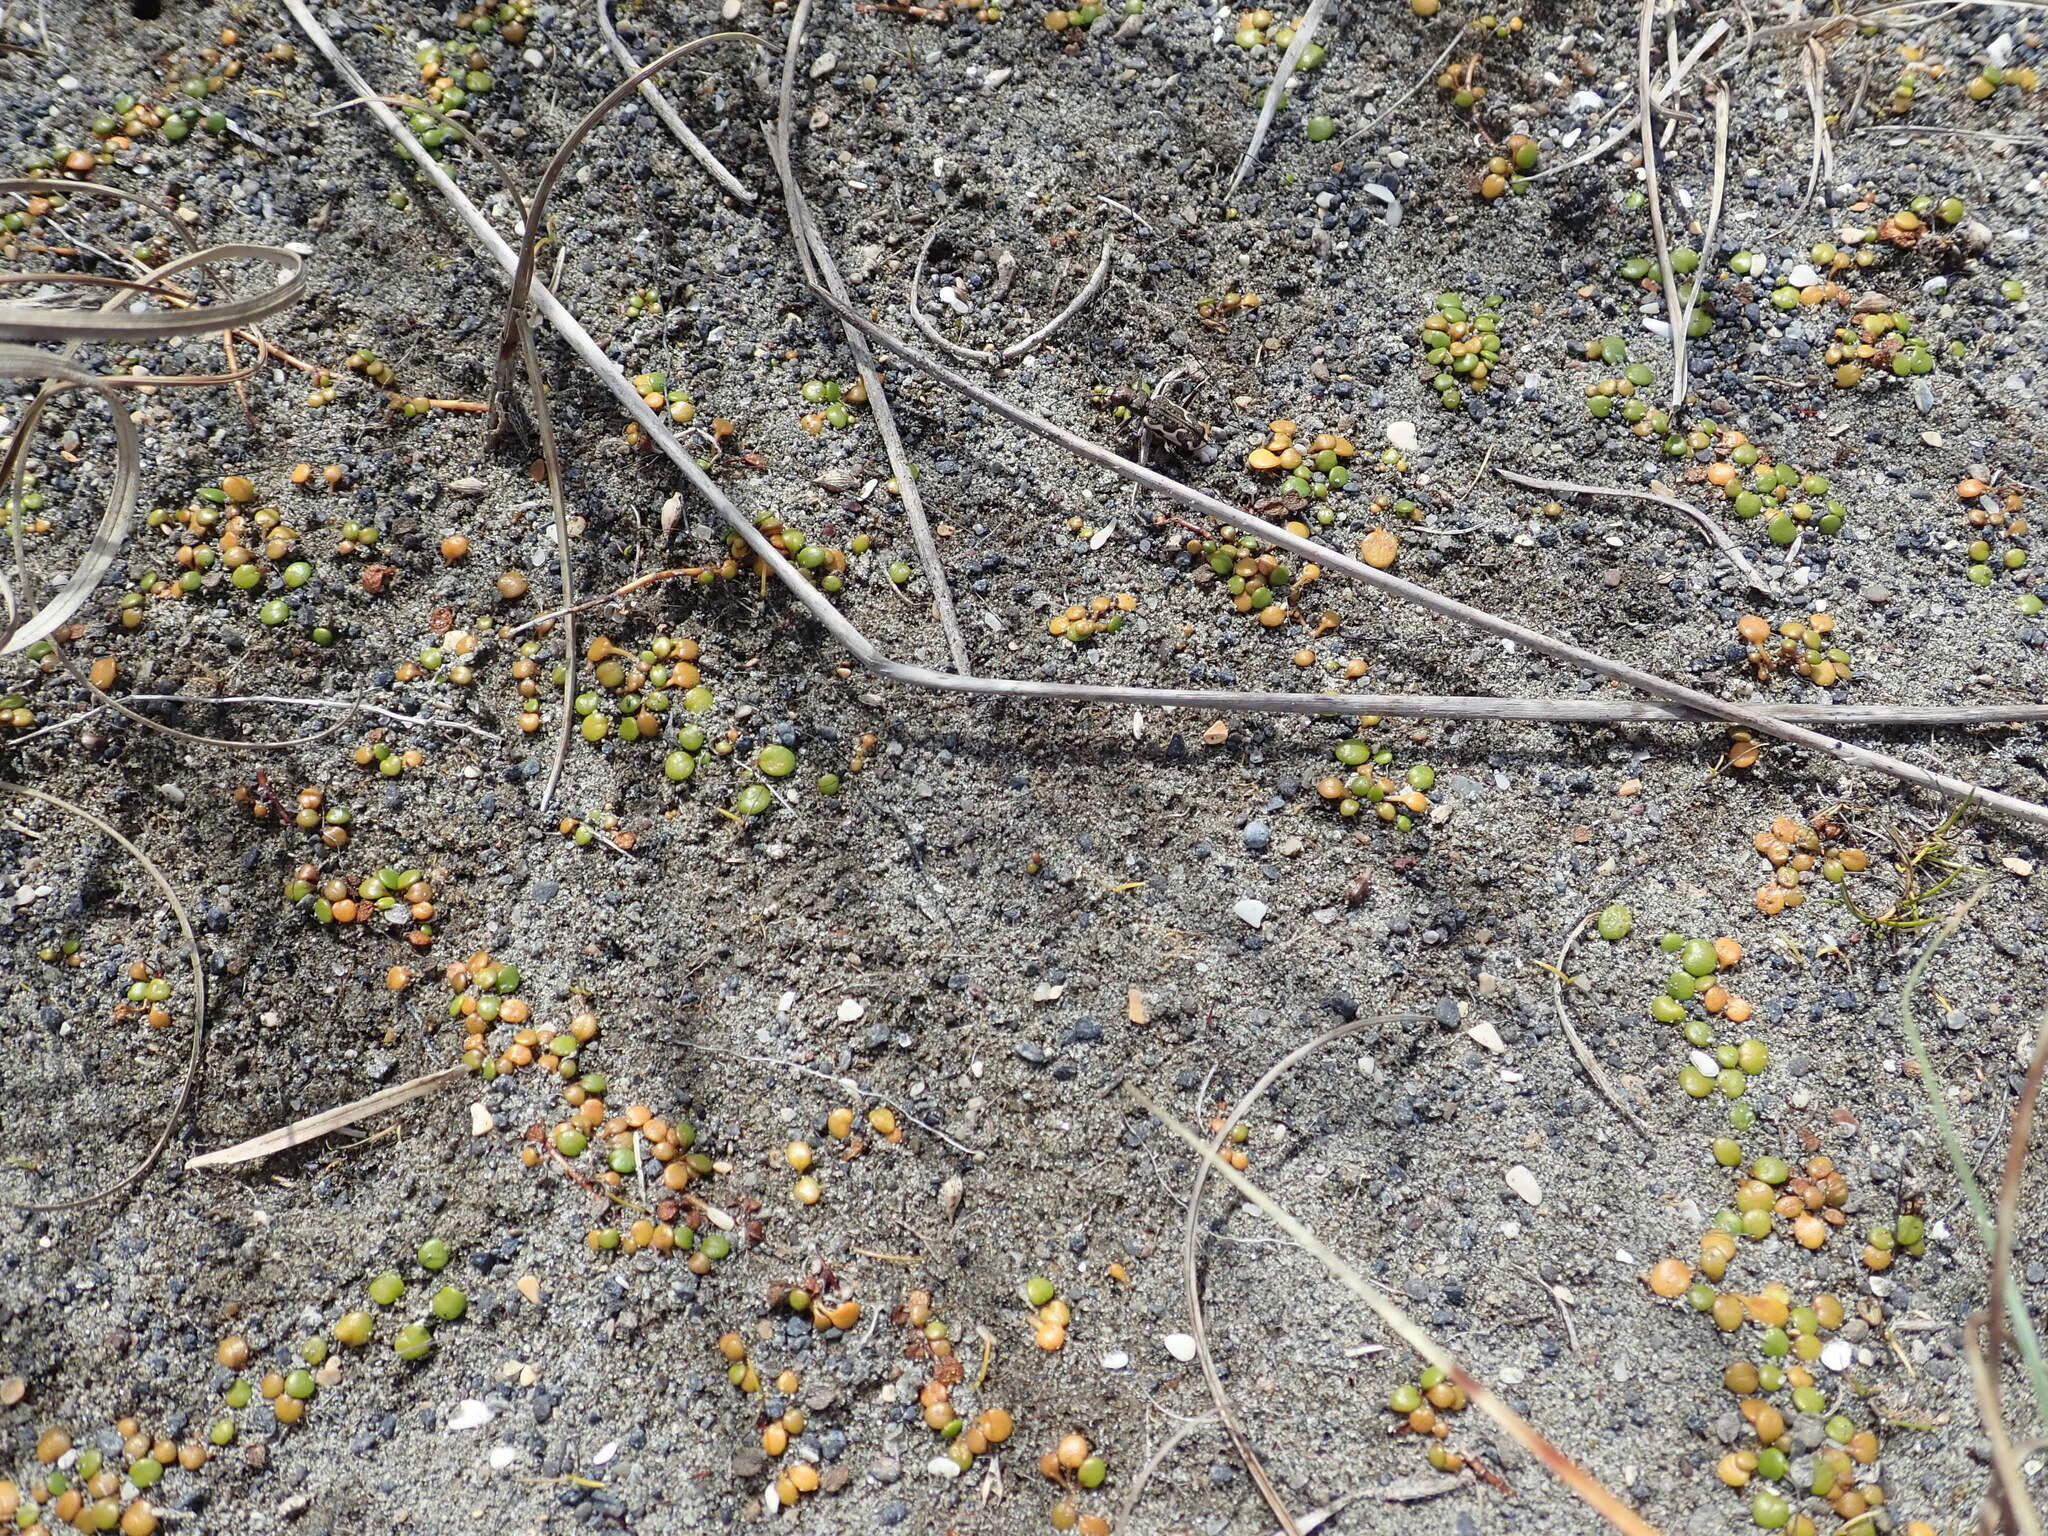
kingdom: Animalia
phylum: Arthropoda
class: Insecta
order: Coleoptera
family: Carabidae
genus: Neocicindela
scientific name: Neocicindela tuberculata
